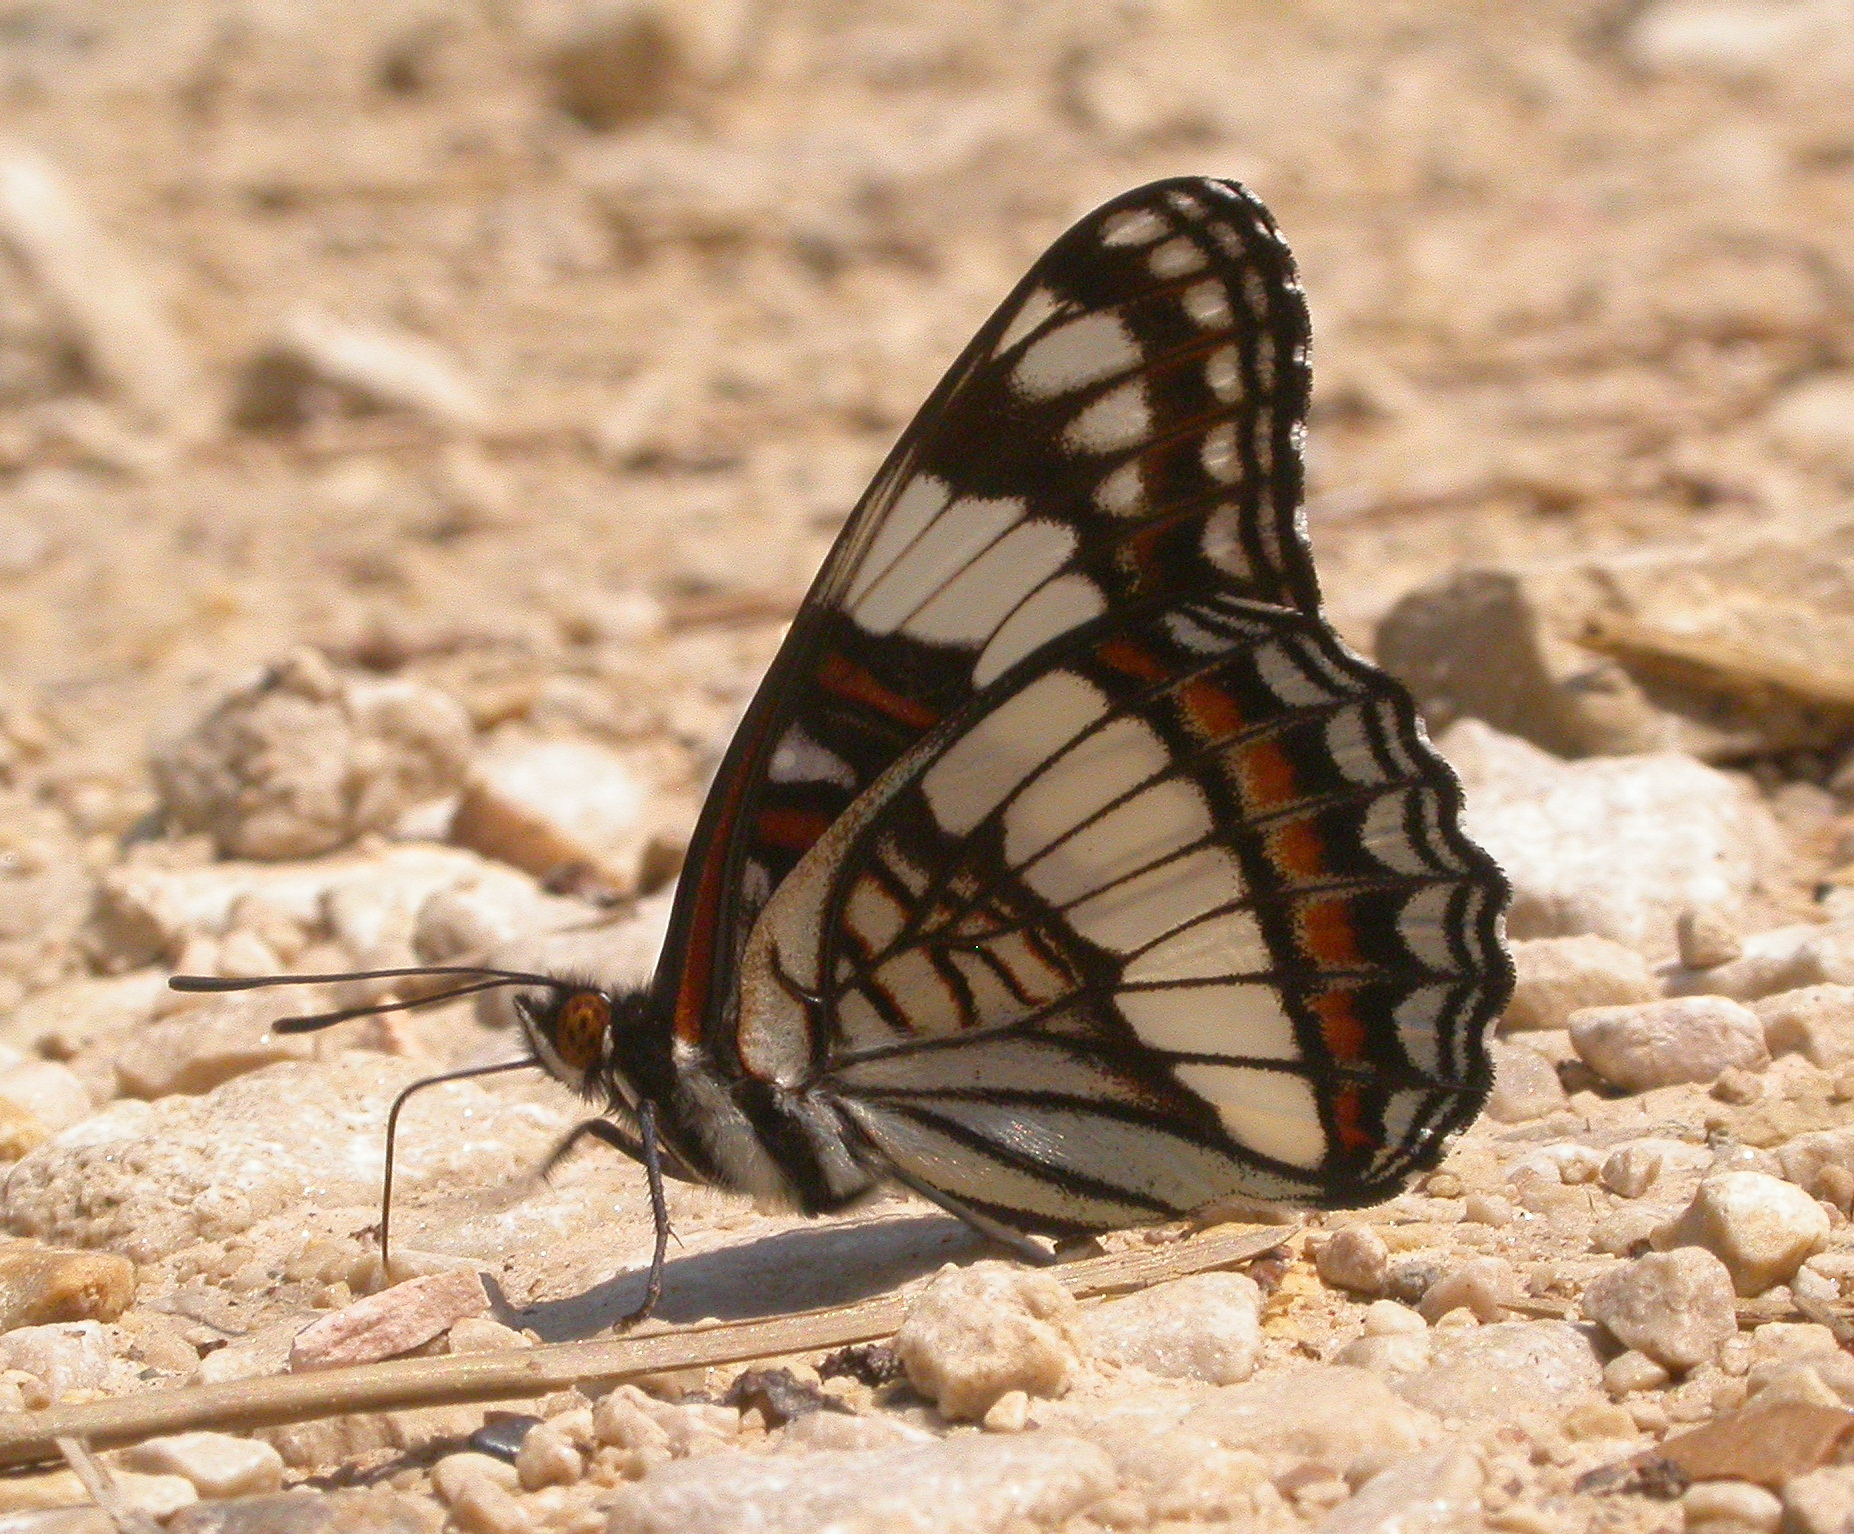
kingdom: Animalia
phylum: Arthropoda
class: Insecta
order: Lepidoptera
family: Nymphalidae
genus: Limenitis
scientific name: Limenitis weidemeyerii
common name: Weidemeyer's admiral
